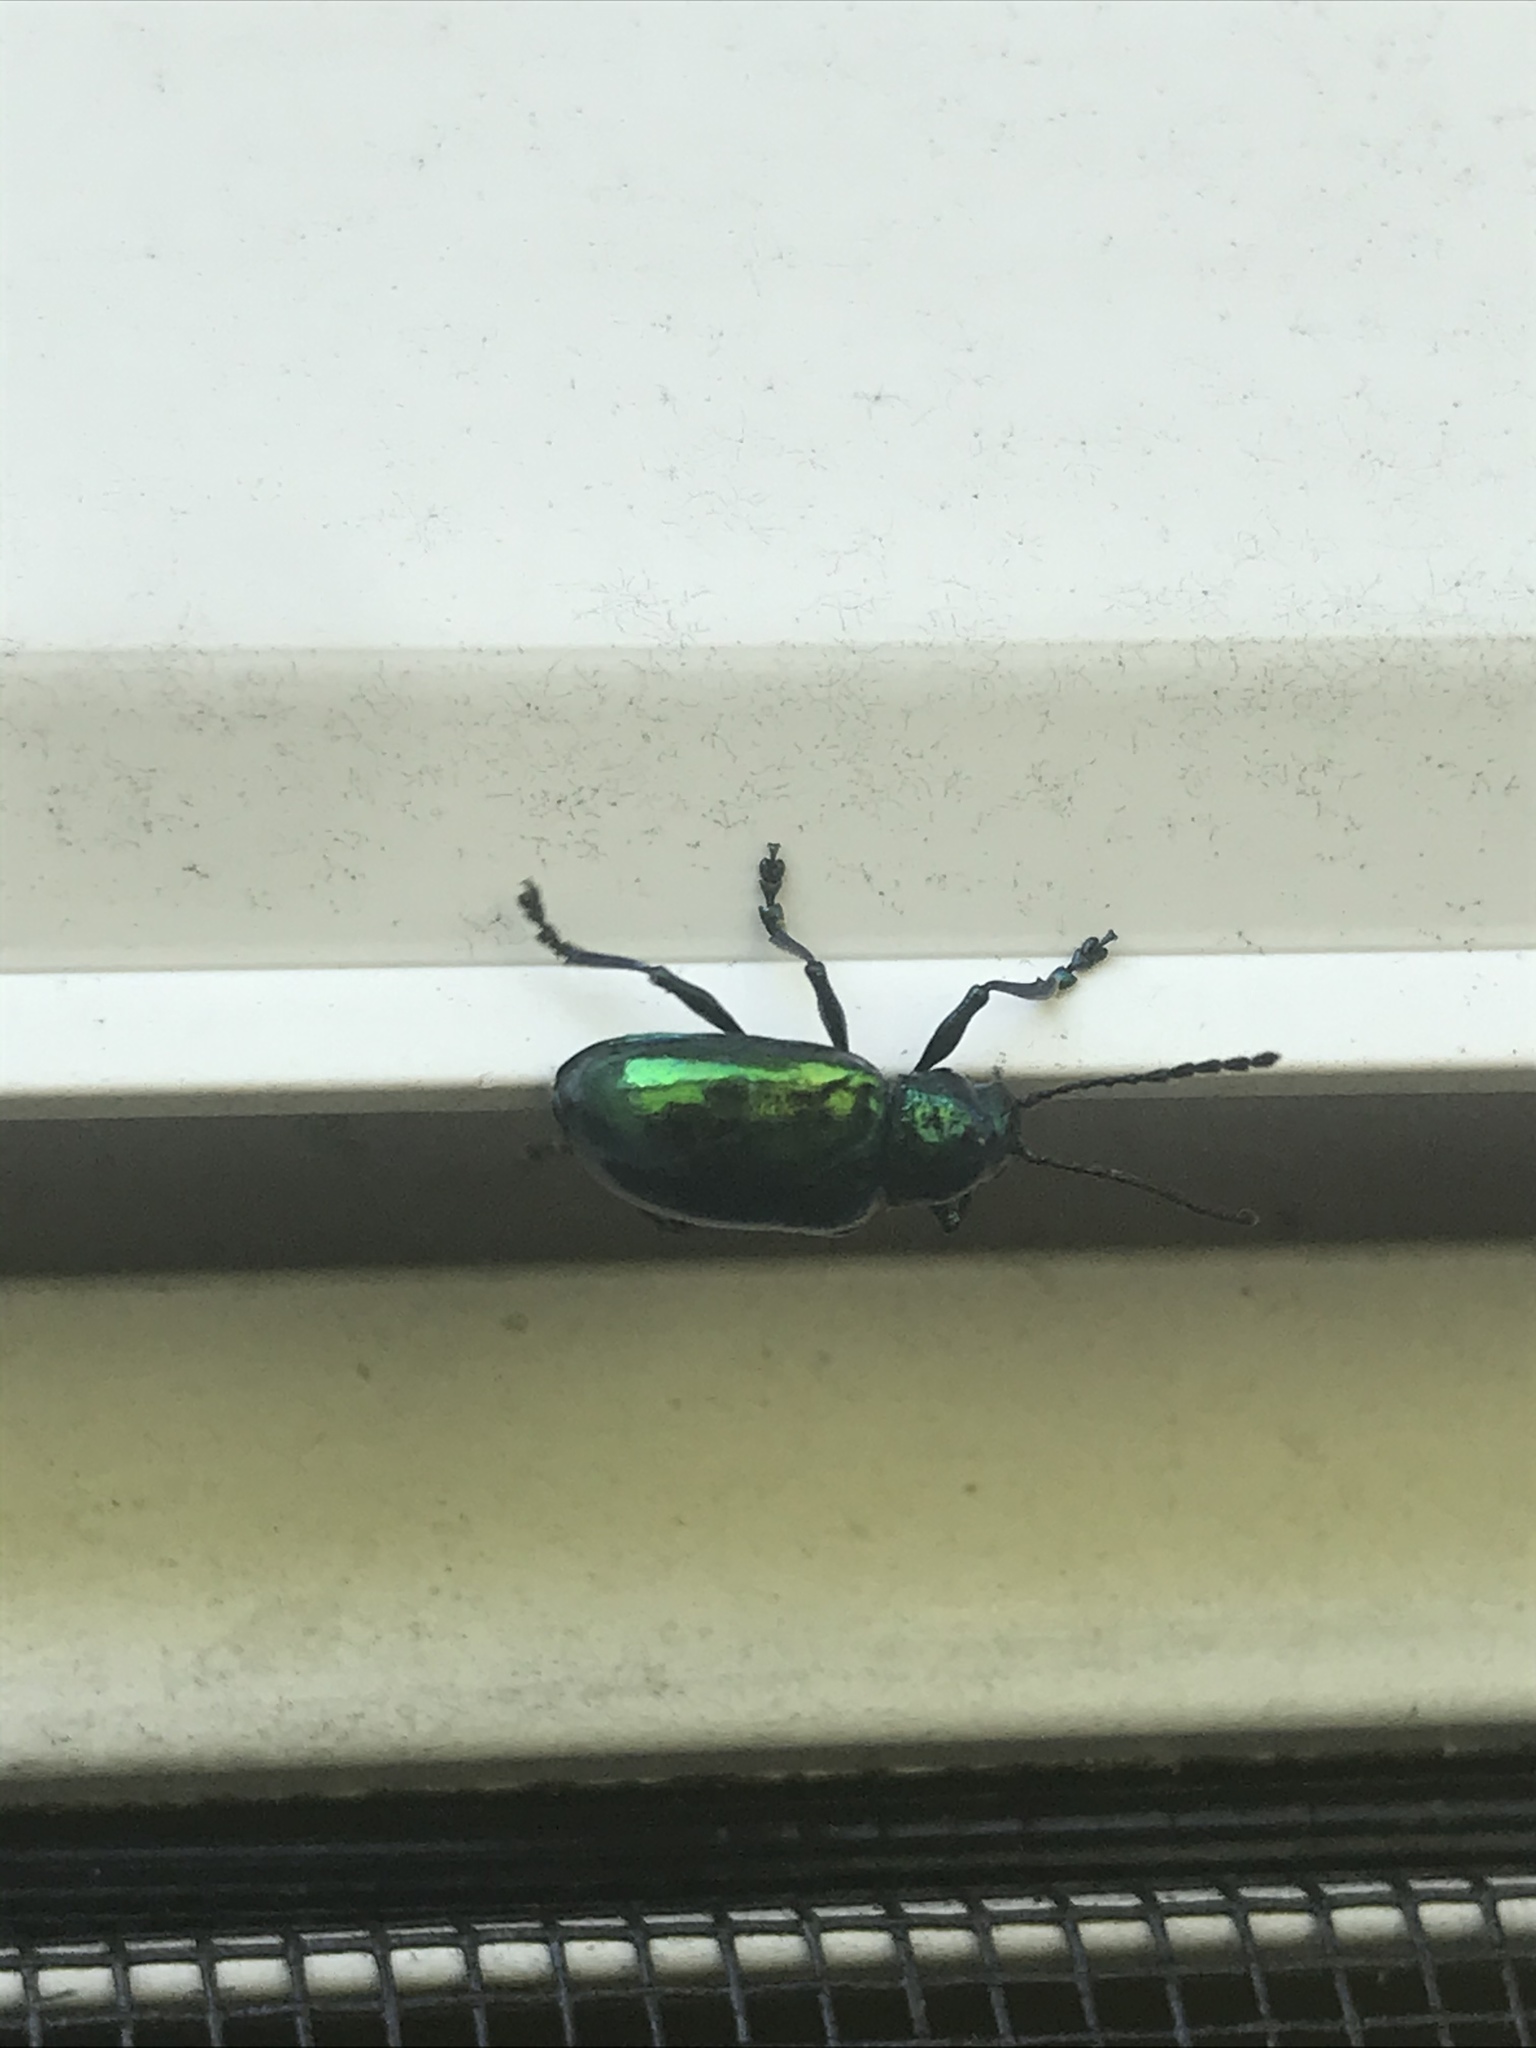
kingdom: Animalia
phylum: Arthropoda
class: Insecta
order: Coleoptera
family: Chrysomelidae
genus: Chrysochus
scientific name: Chrysochus auratus
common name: Dogbane leaf beetle
